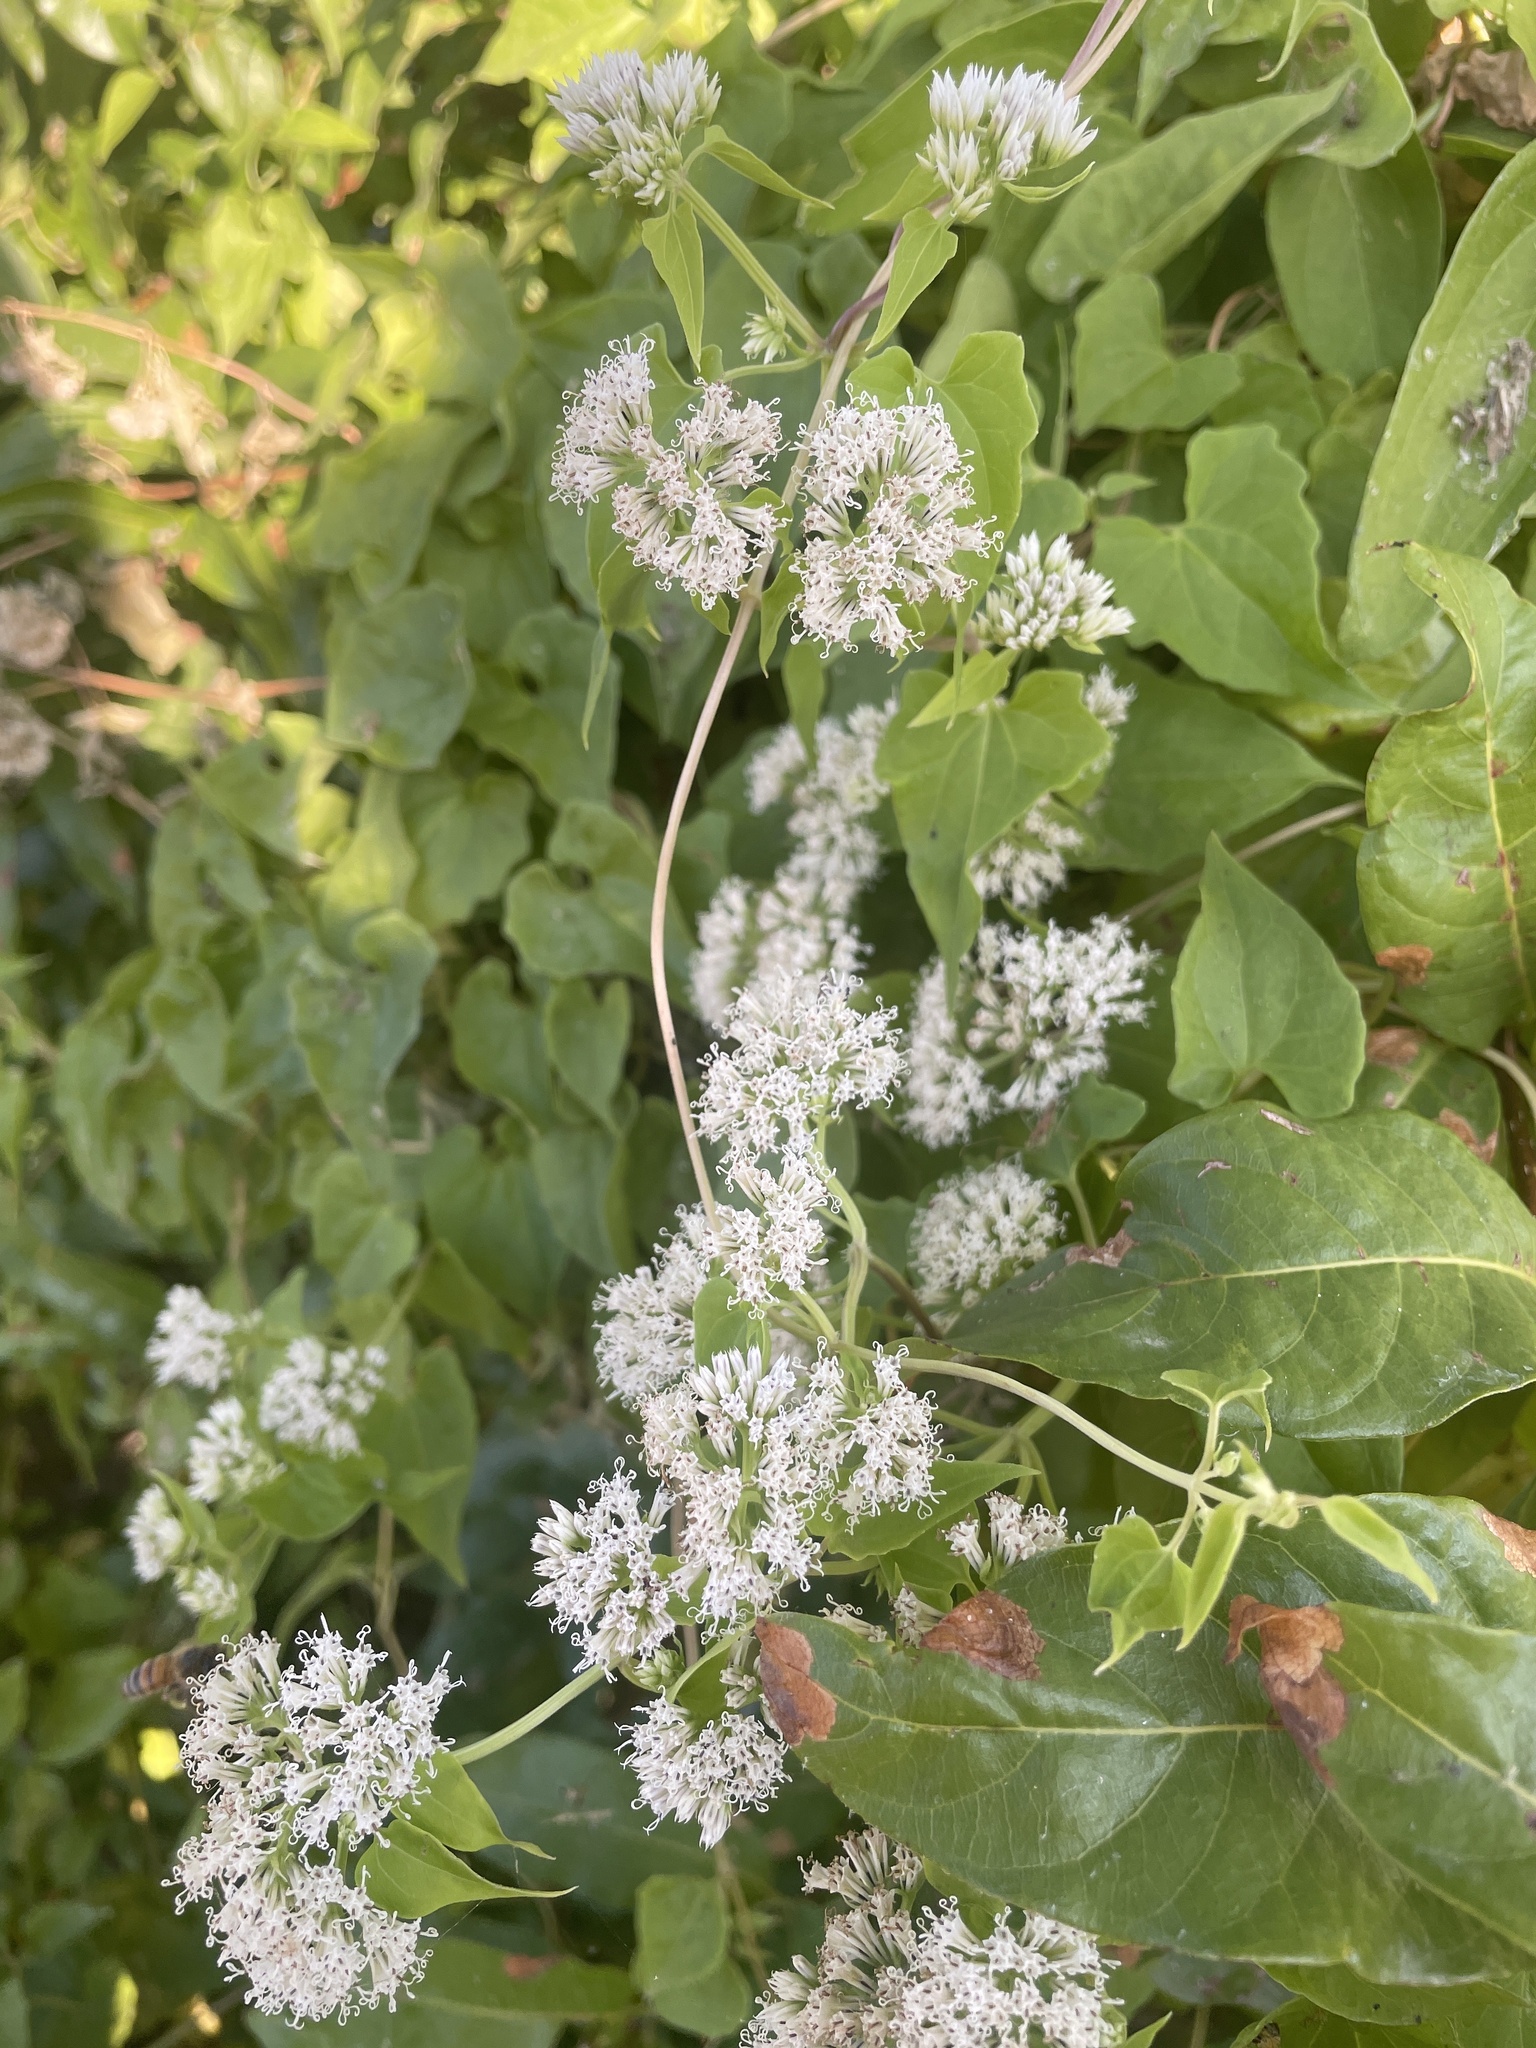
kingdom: Plantae
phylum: Tracheophyta
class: Magnoliopsida
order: Asterales
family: Asteraceae
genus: Mikania
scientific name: Mikania scandens
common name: Climbing hempvine
